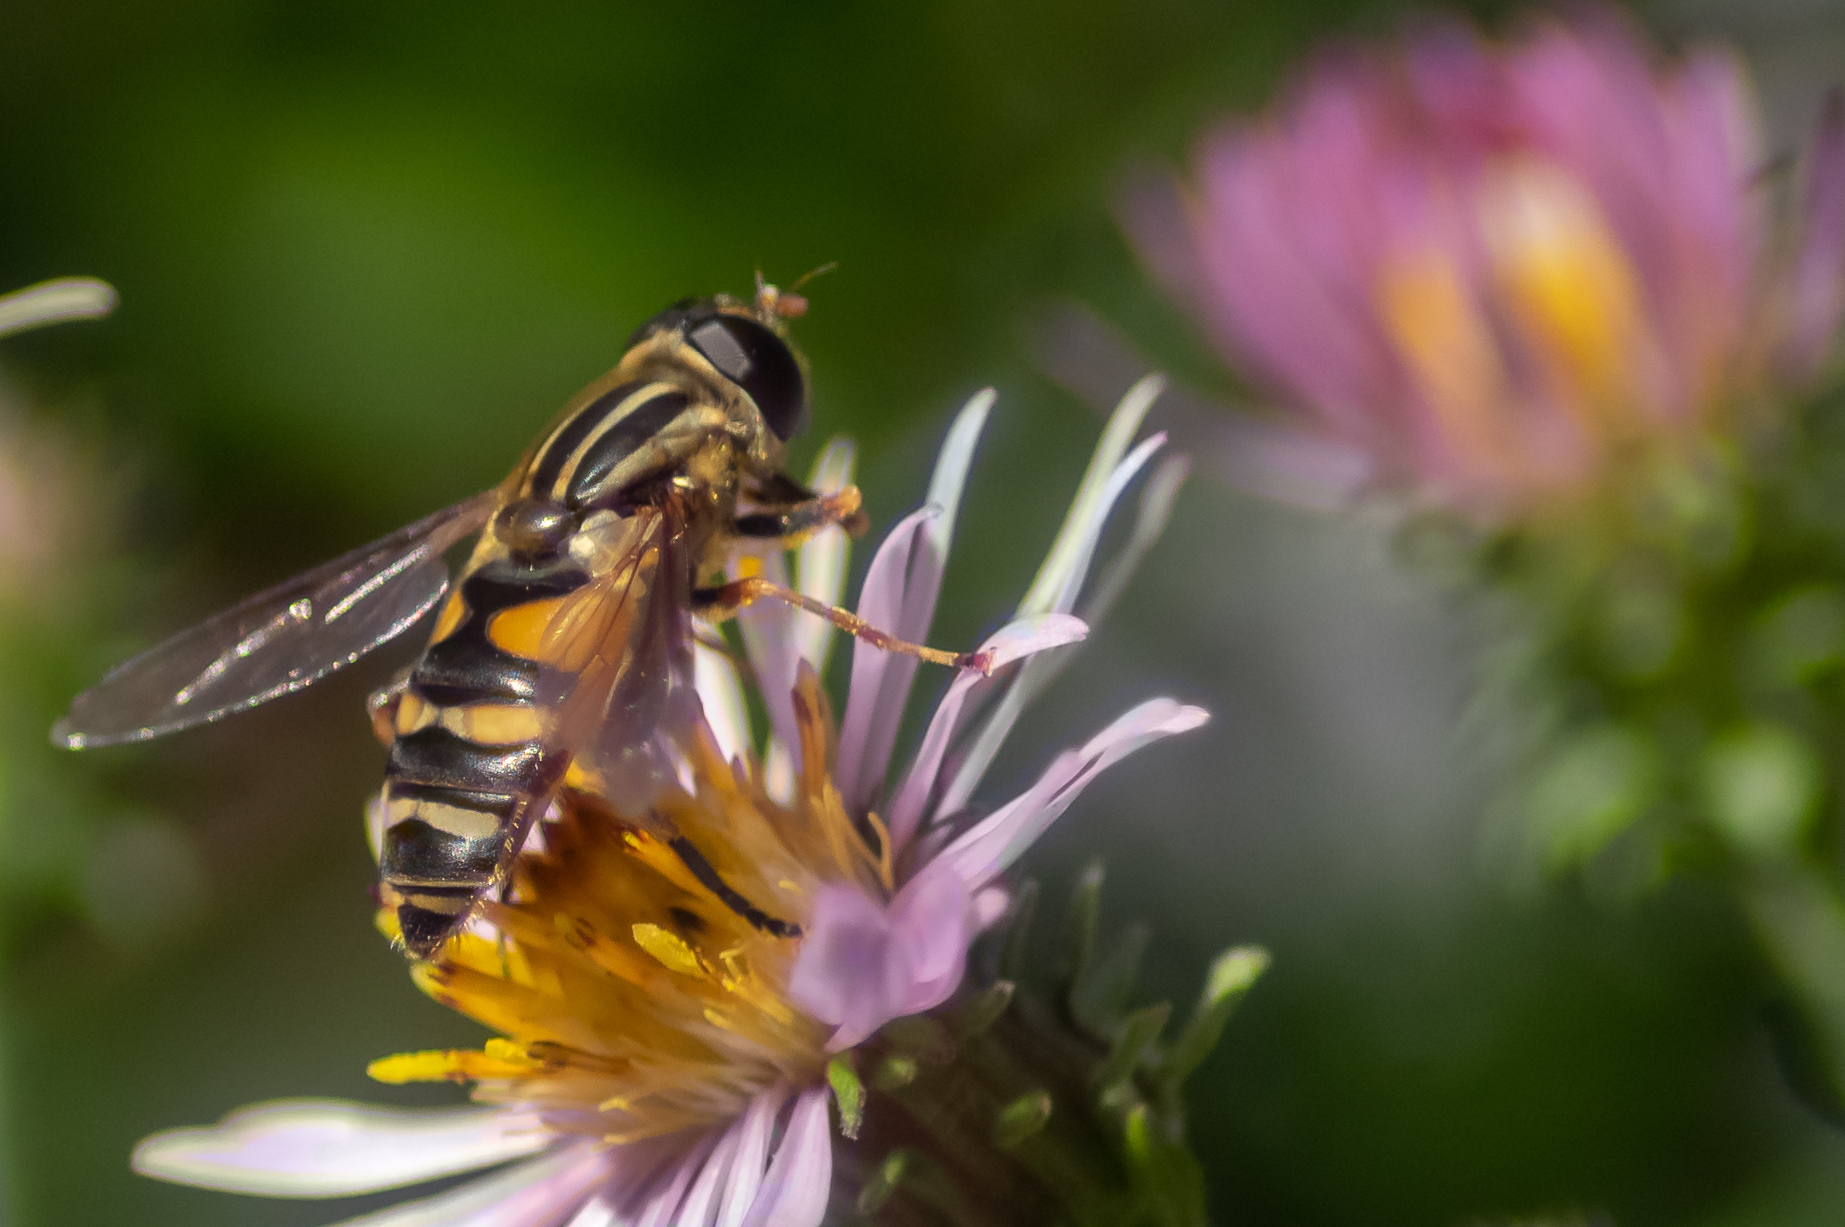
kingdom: Animalia
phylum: Arthropoda
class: Insecta
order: Diptera
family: Syrphidae
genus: Helophilus
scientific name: Helophilus fasciatus
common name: Narrow-headed marsh fly
